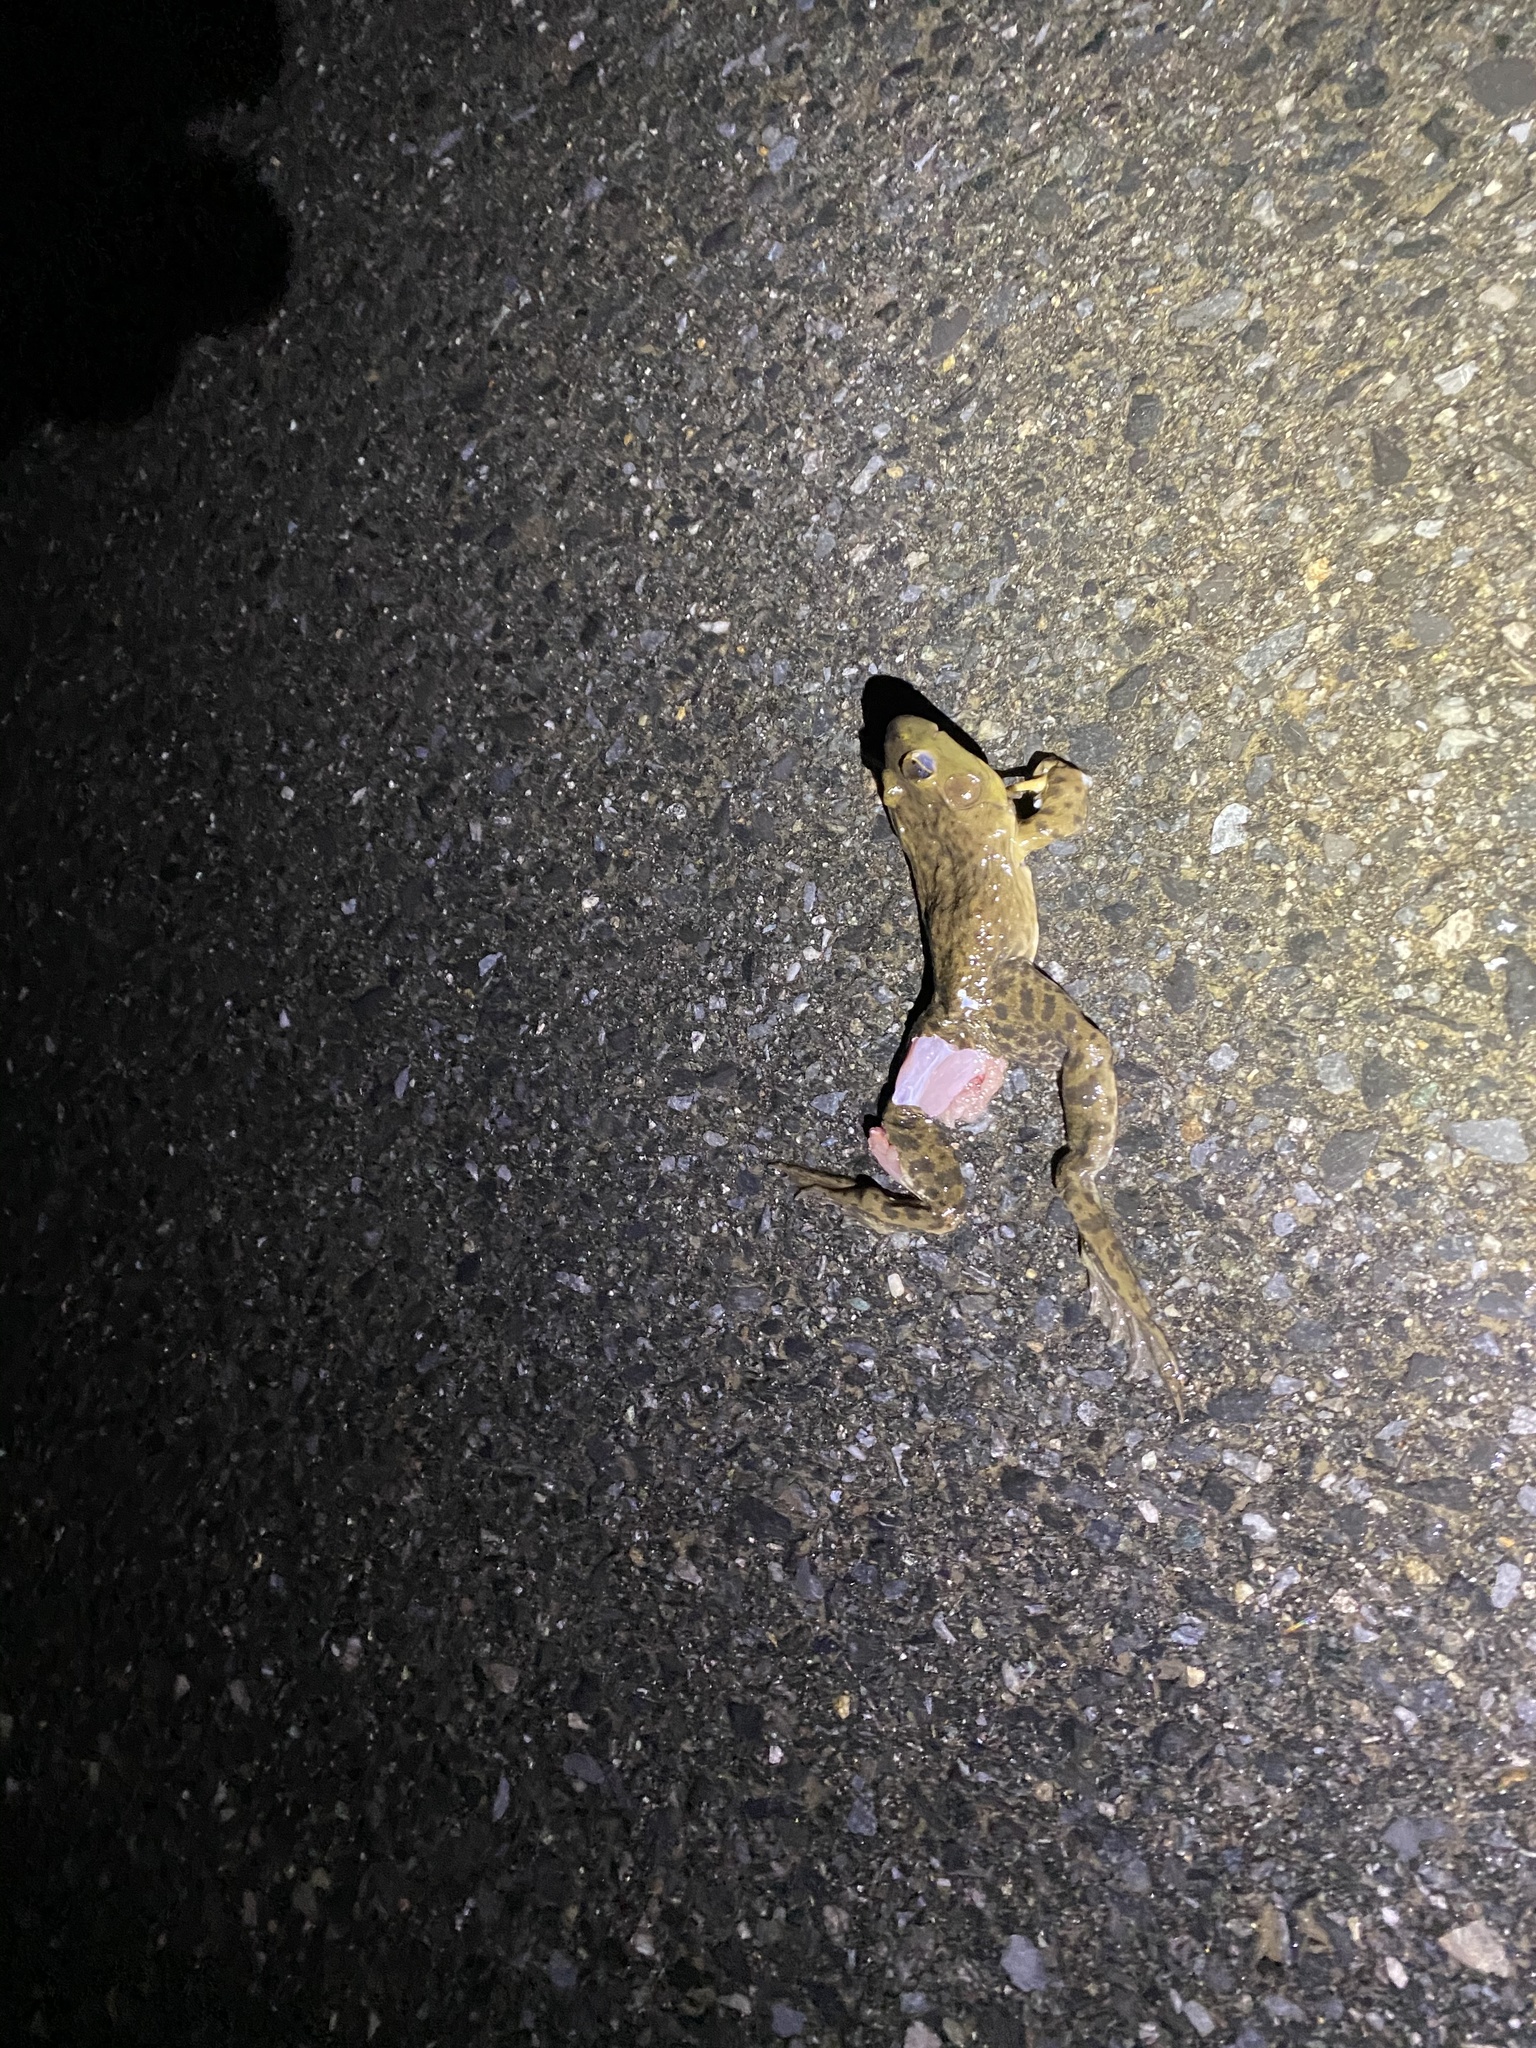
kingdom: Animalia
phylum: Chordata
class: Amphibia
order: Anura
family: Ranidae
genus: Lithobates
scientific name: Lithobates catesbeianus
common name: American bullfrog
